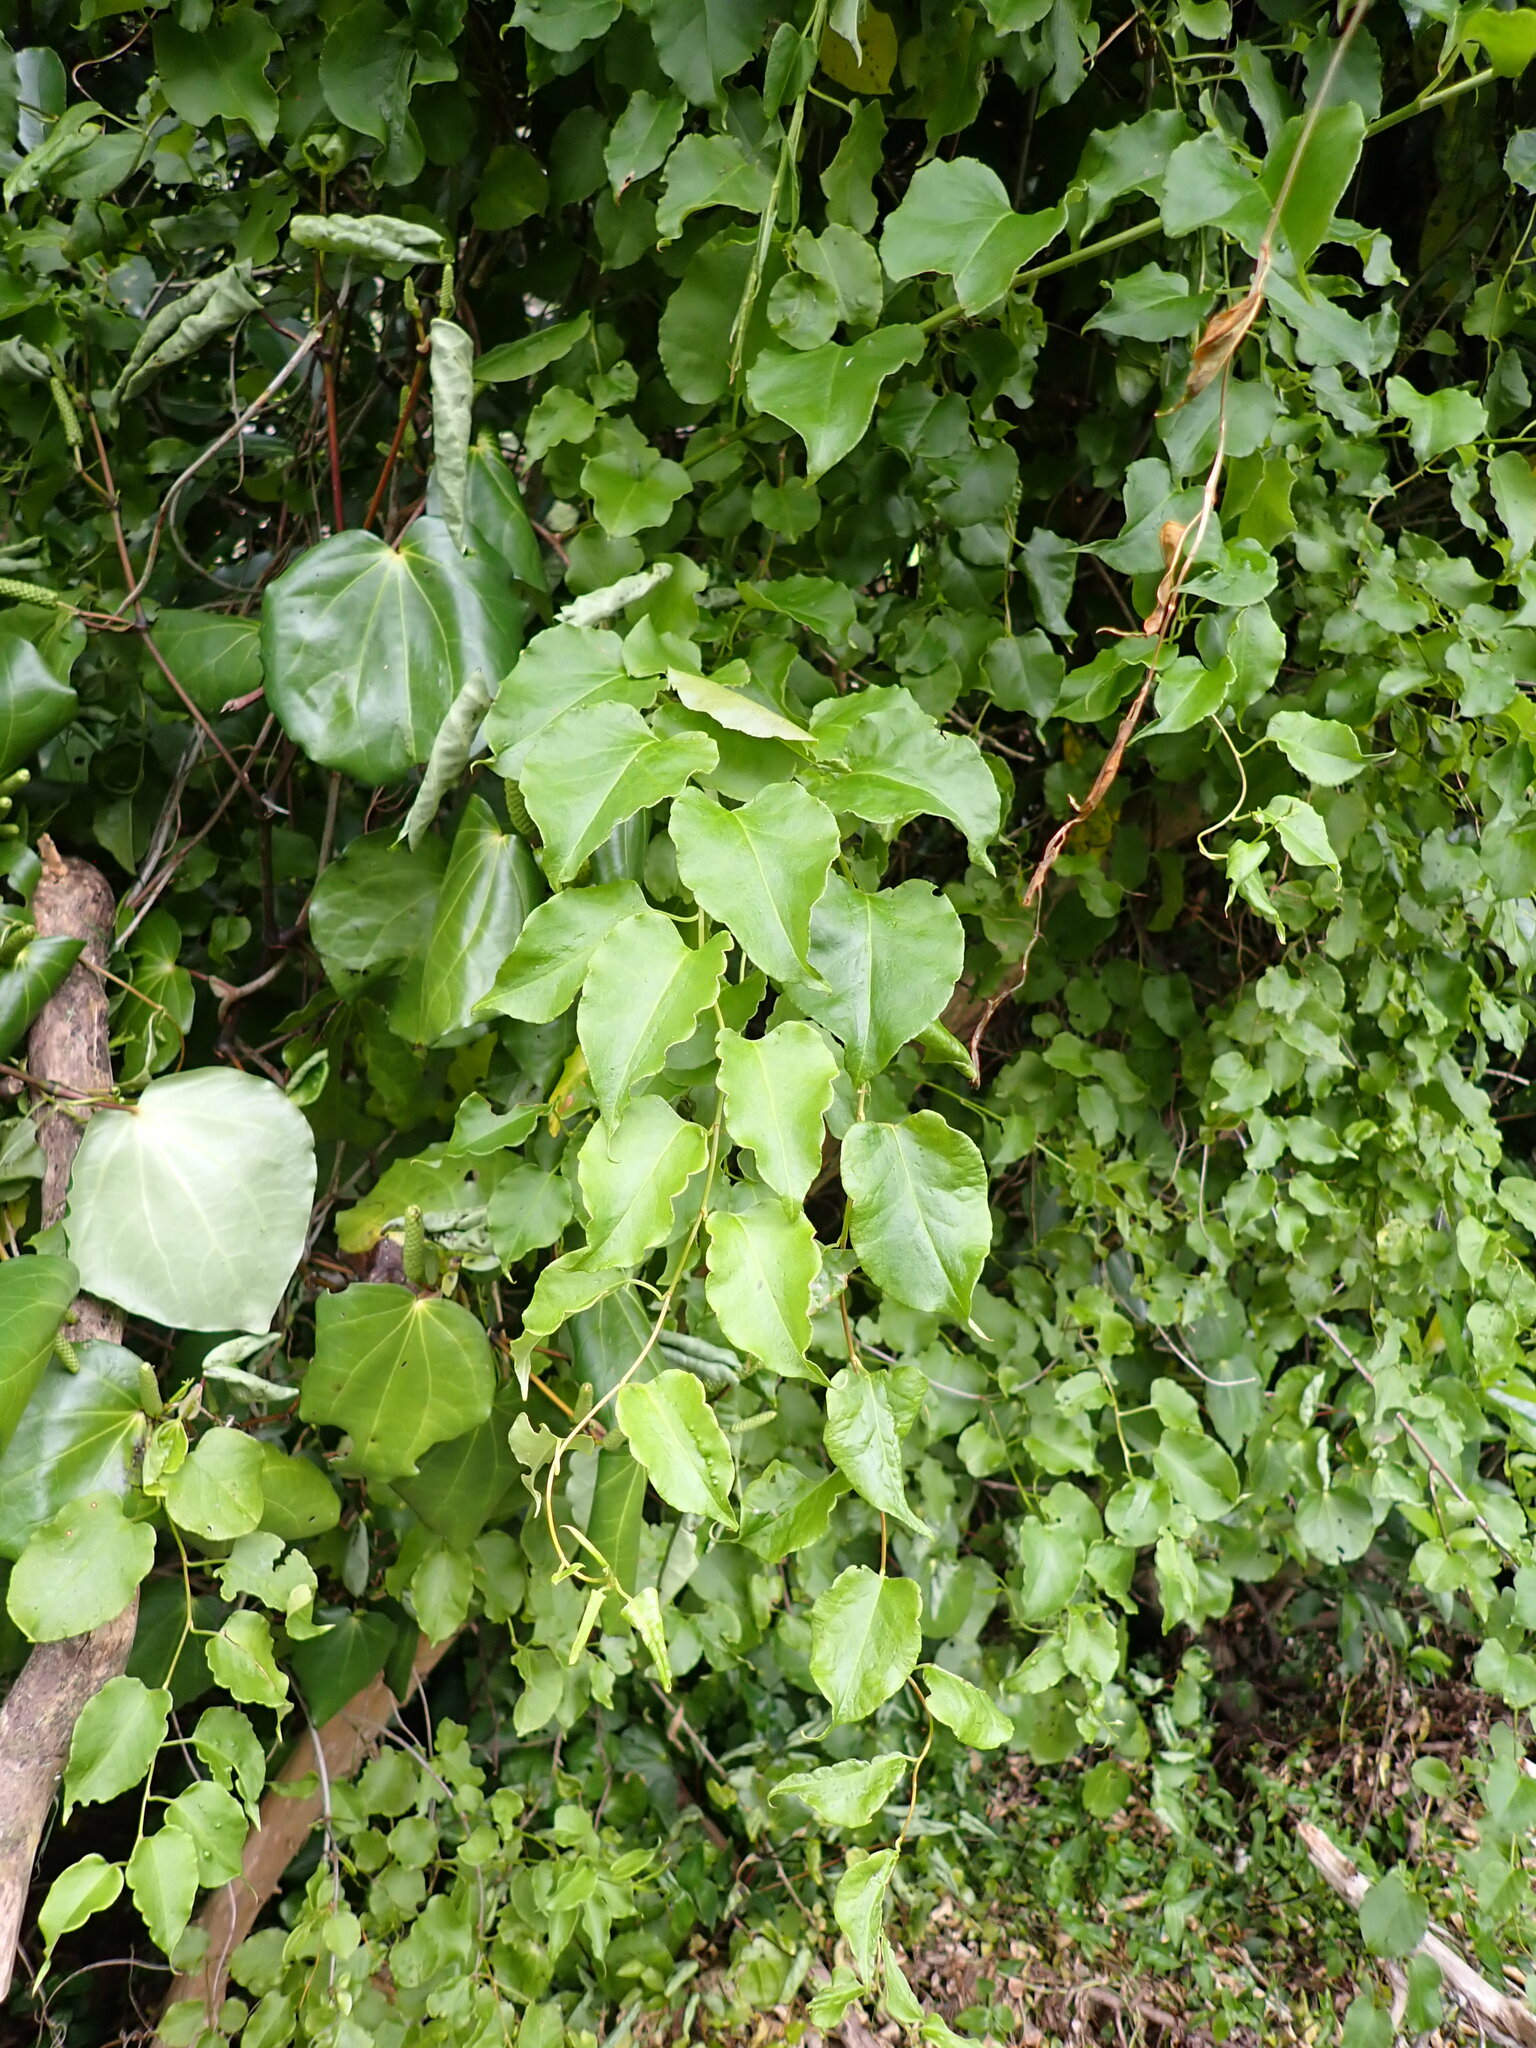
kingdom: Plantae
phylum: Tracheophyta
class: Magnoliopsida
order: Caryophyllales
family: Polygonaceae
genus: Muehlenbeckia
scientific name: Muehlenbeckia australis
